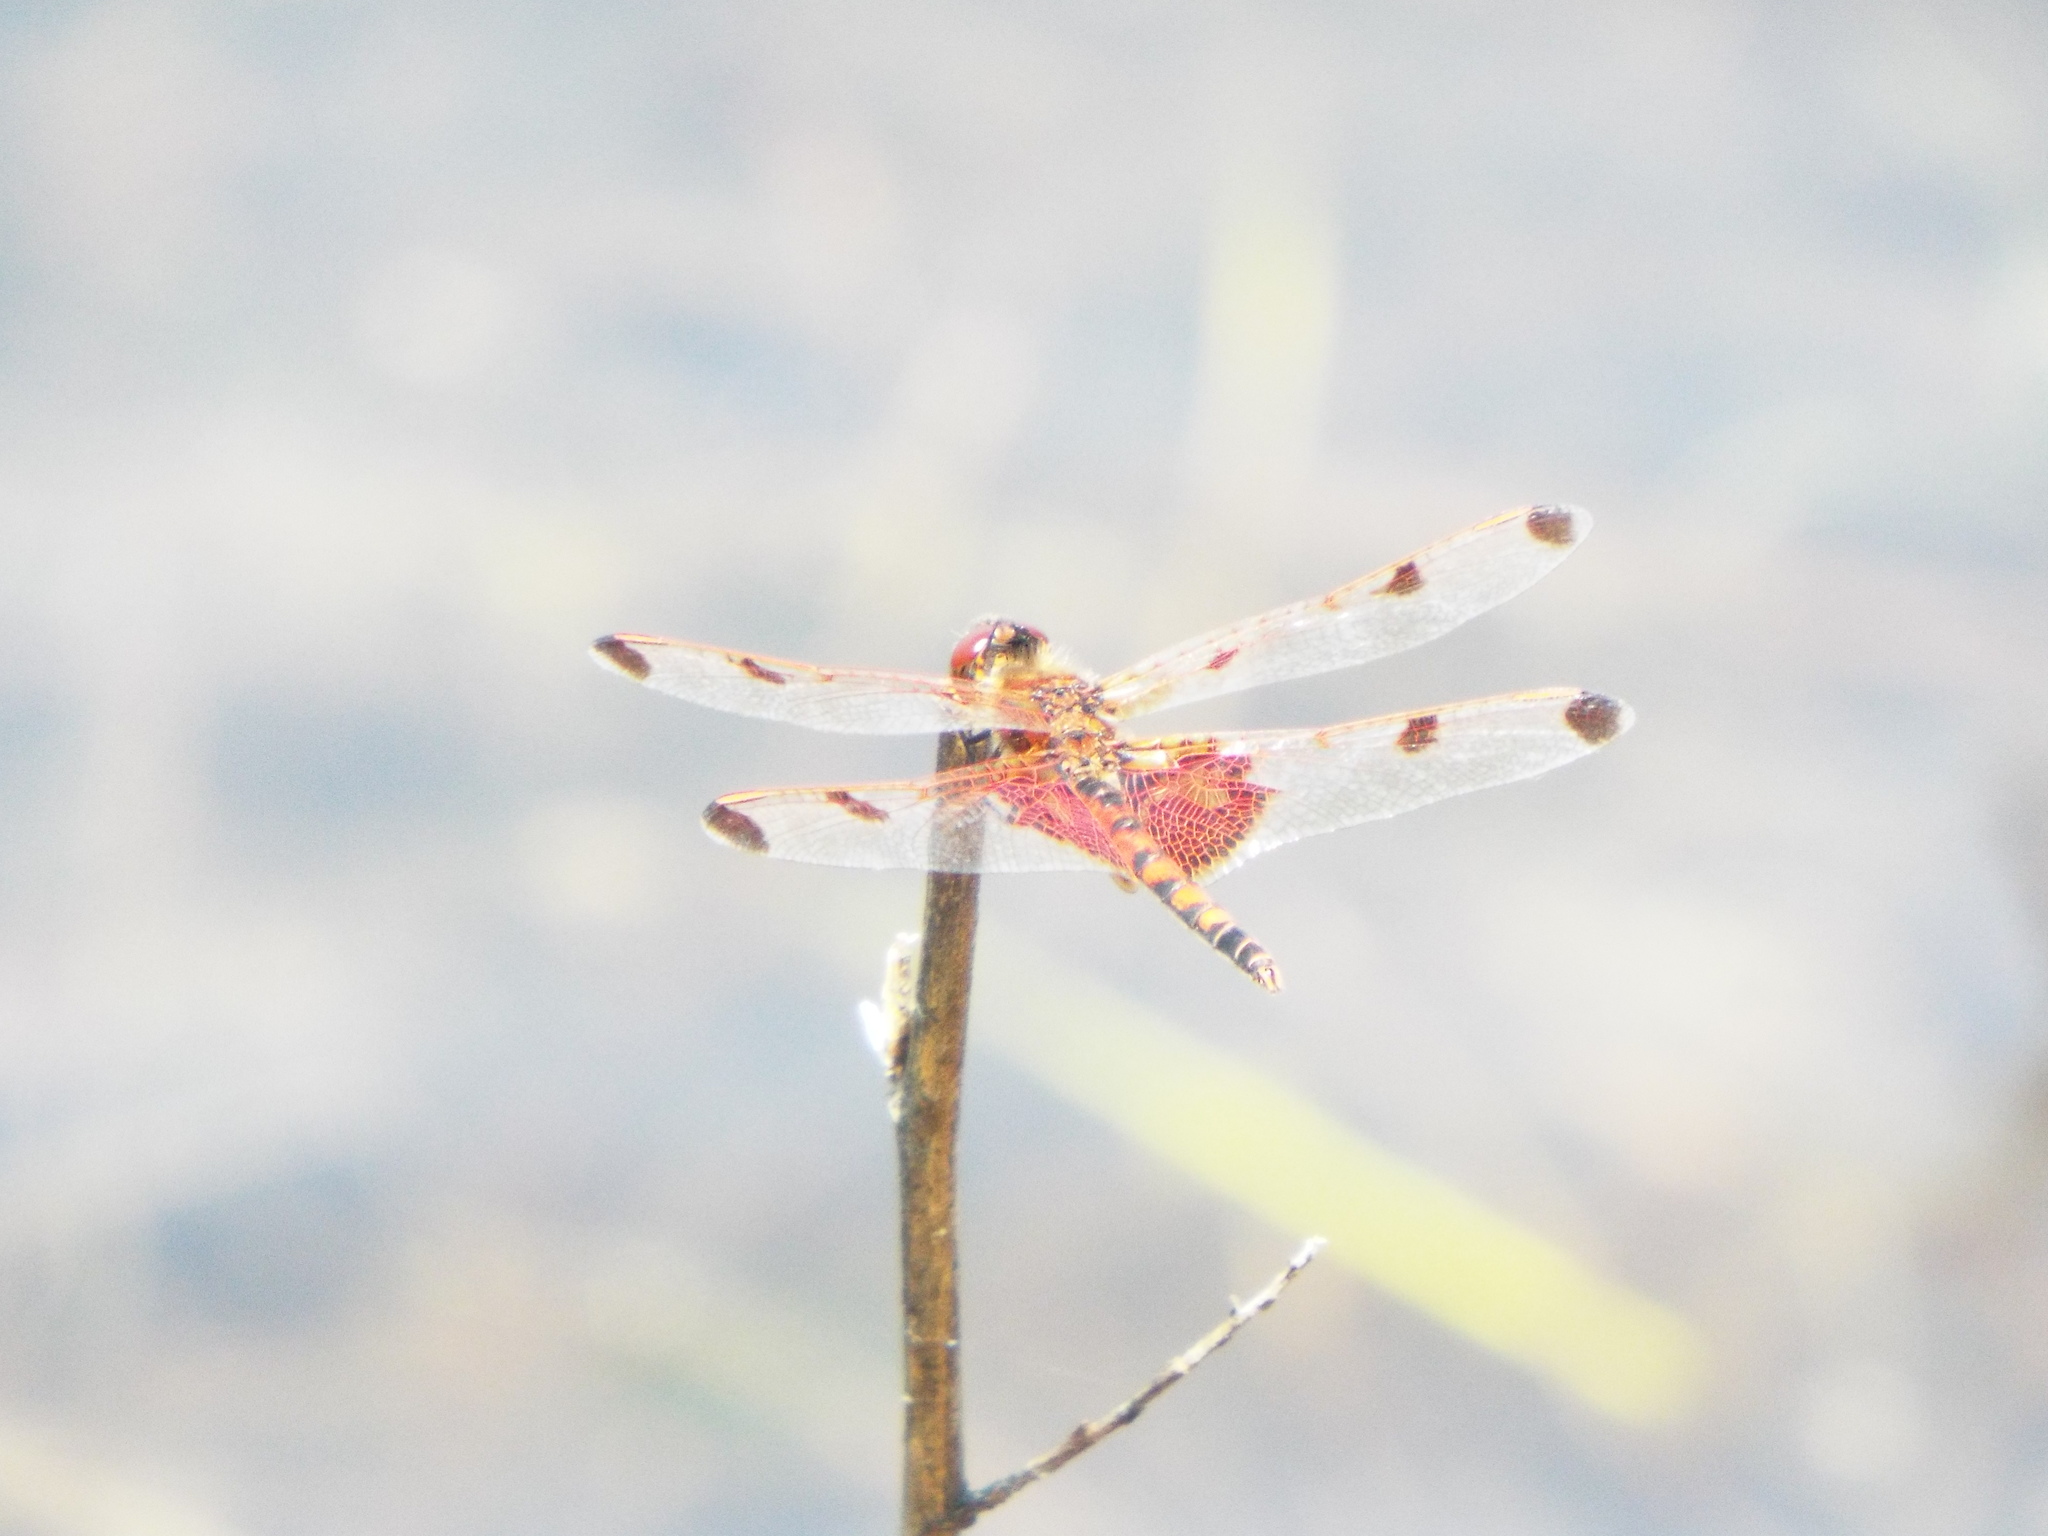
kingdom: Animalia
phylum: Arthropoda
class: Insecta
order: Odonata
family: Libellulidae
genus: Celithemis
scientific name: Celithemis elisa
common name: Calico pennant
